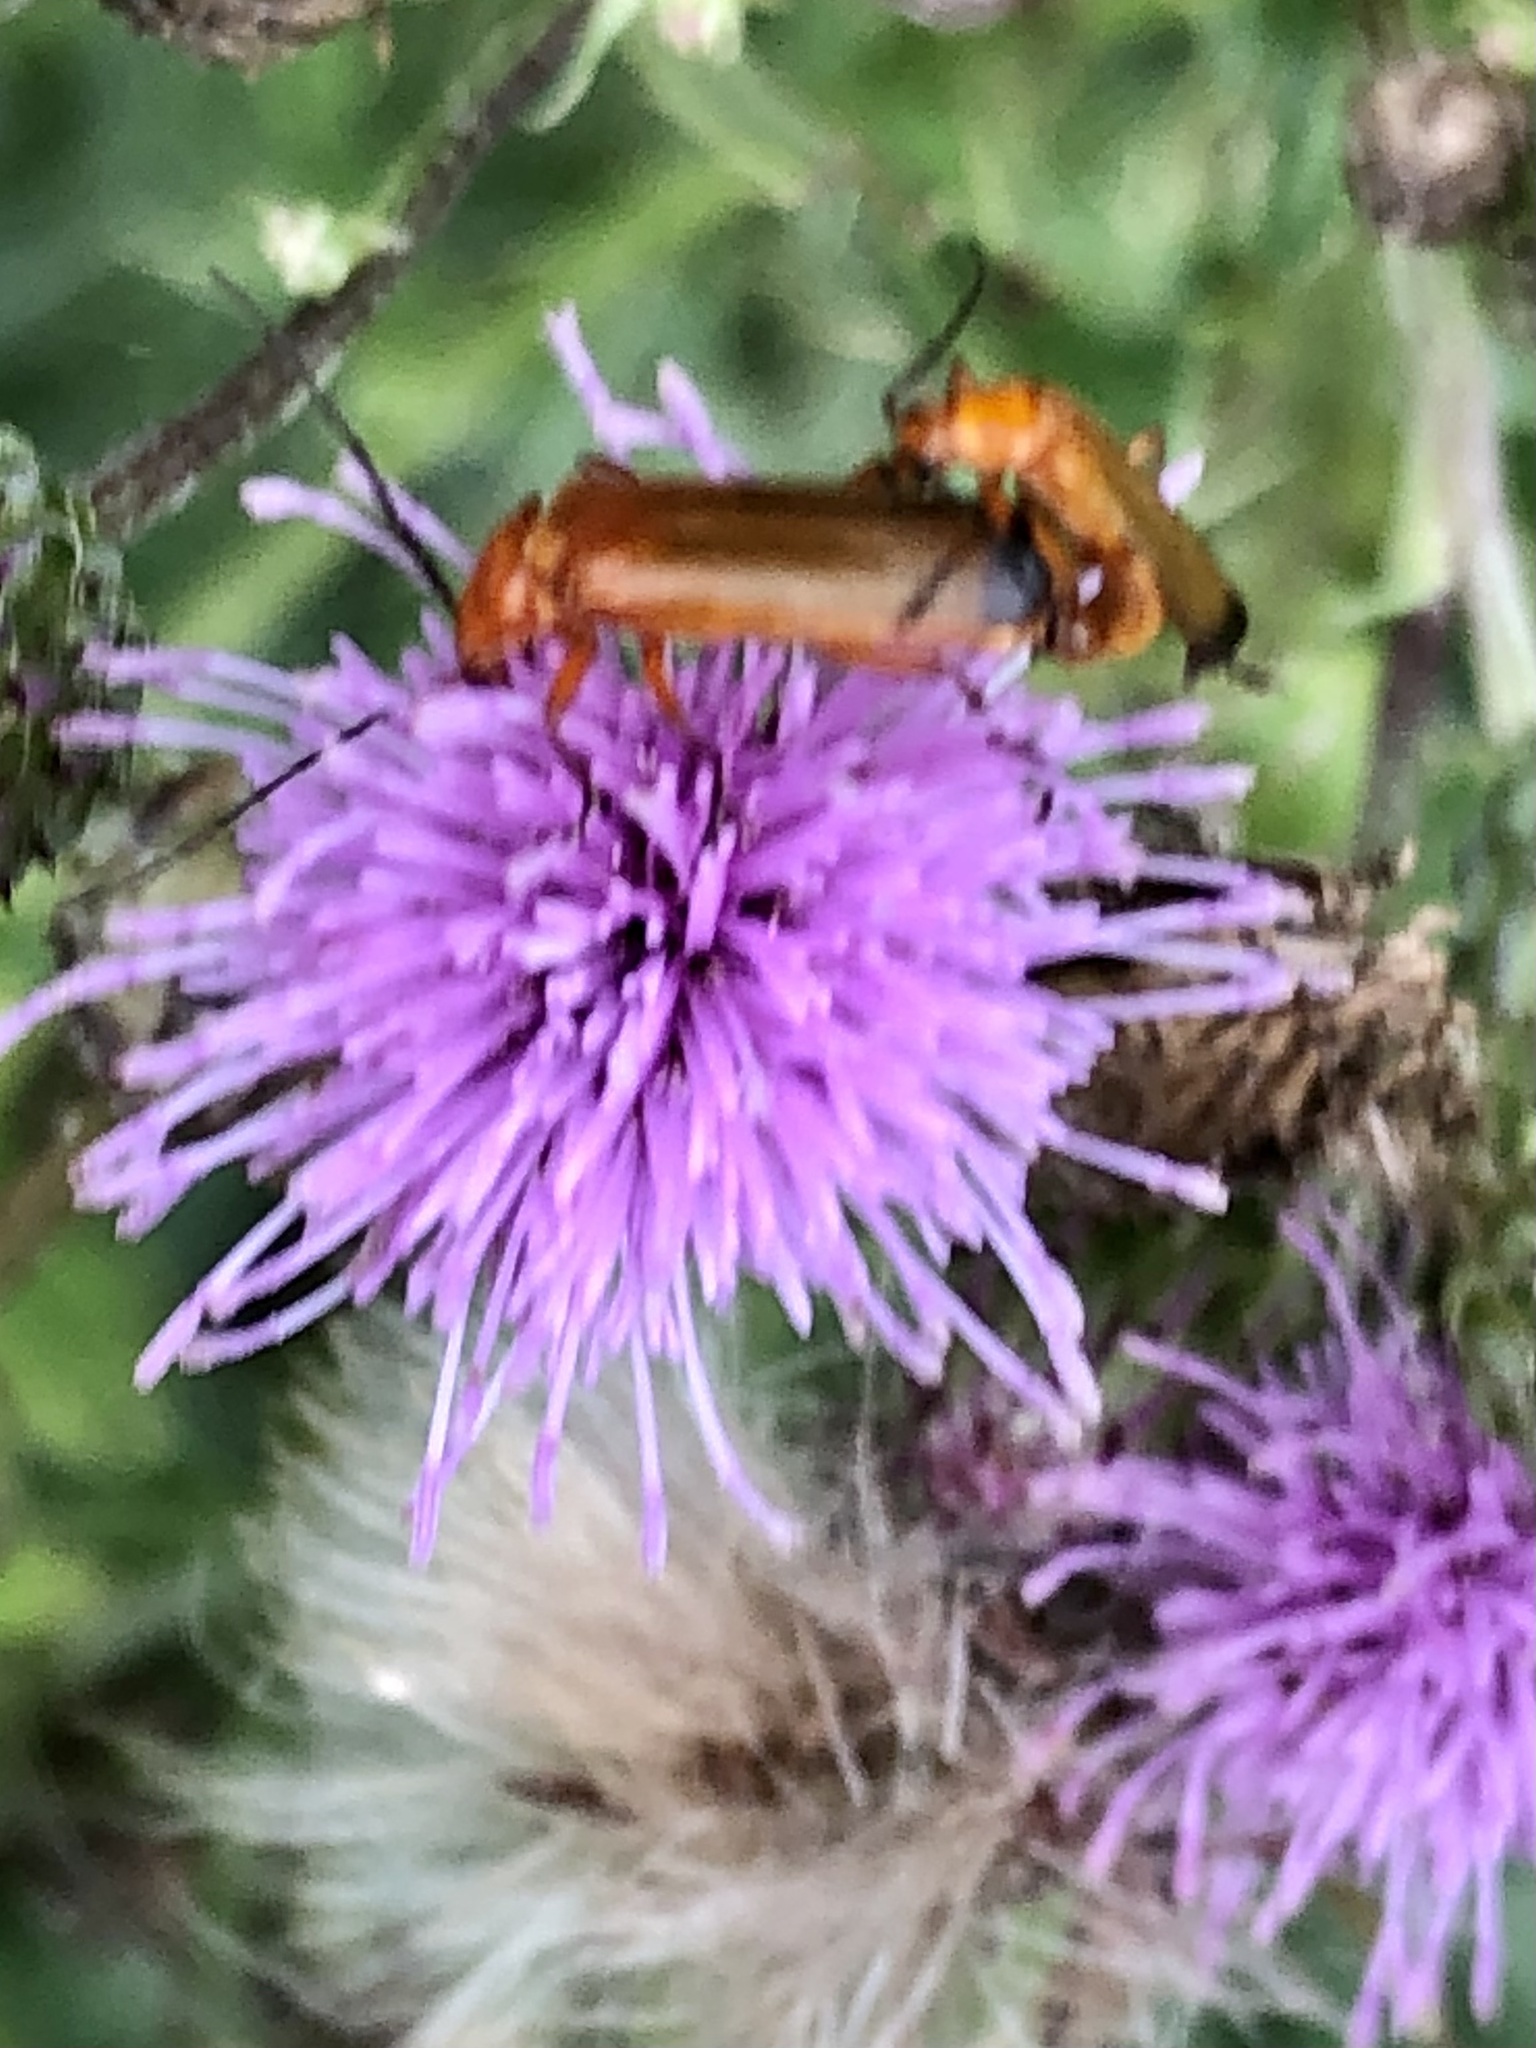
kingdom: Animalia
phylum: Arthropoda
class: Insecta
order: Coleoptera
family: Cantharidae
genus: Rhagonycha
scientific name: Rhagonycha fulva
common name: Common red soldier beetle
